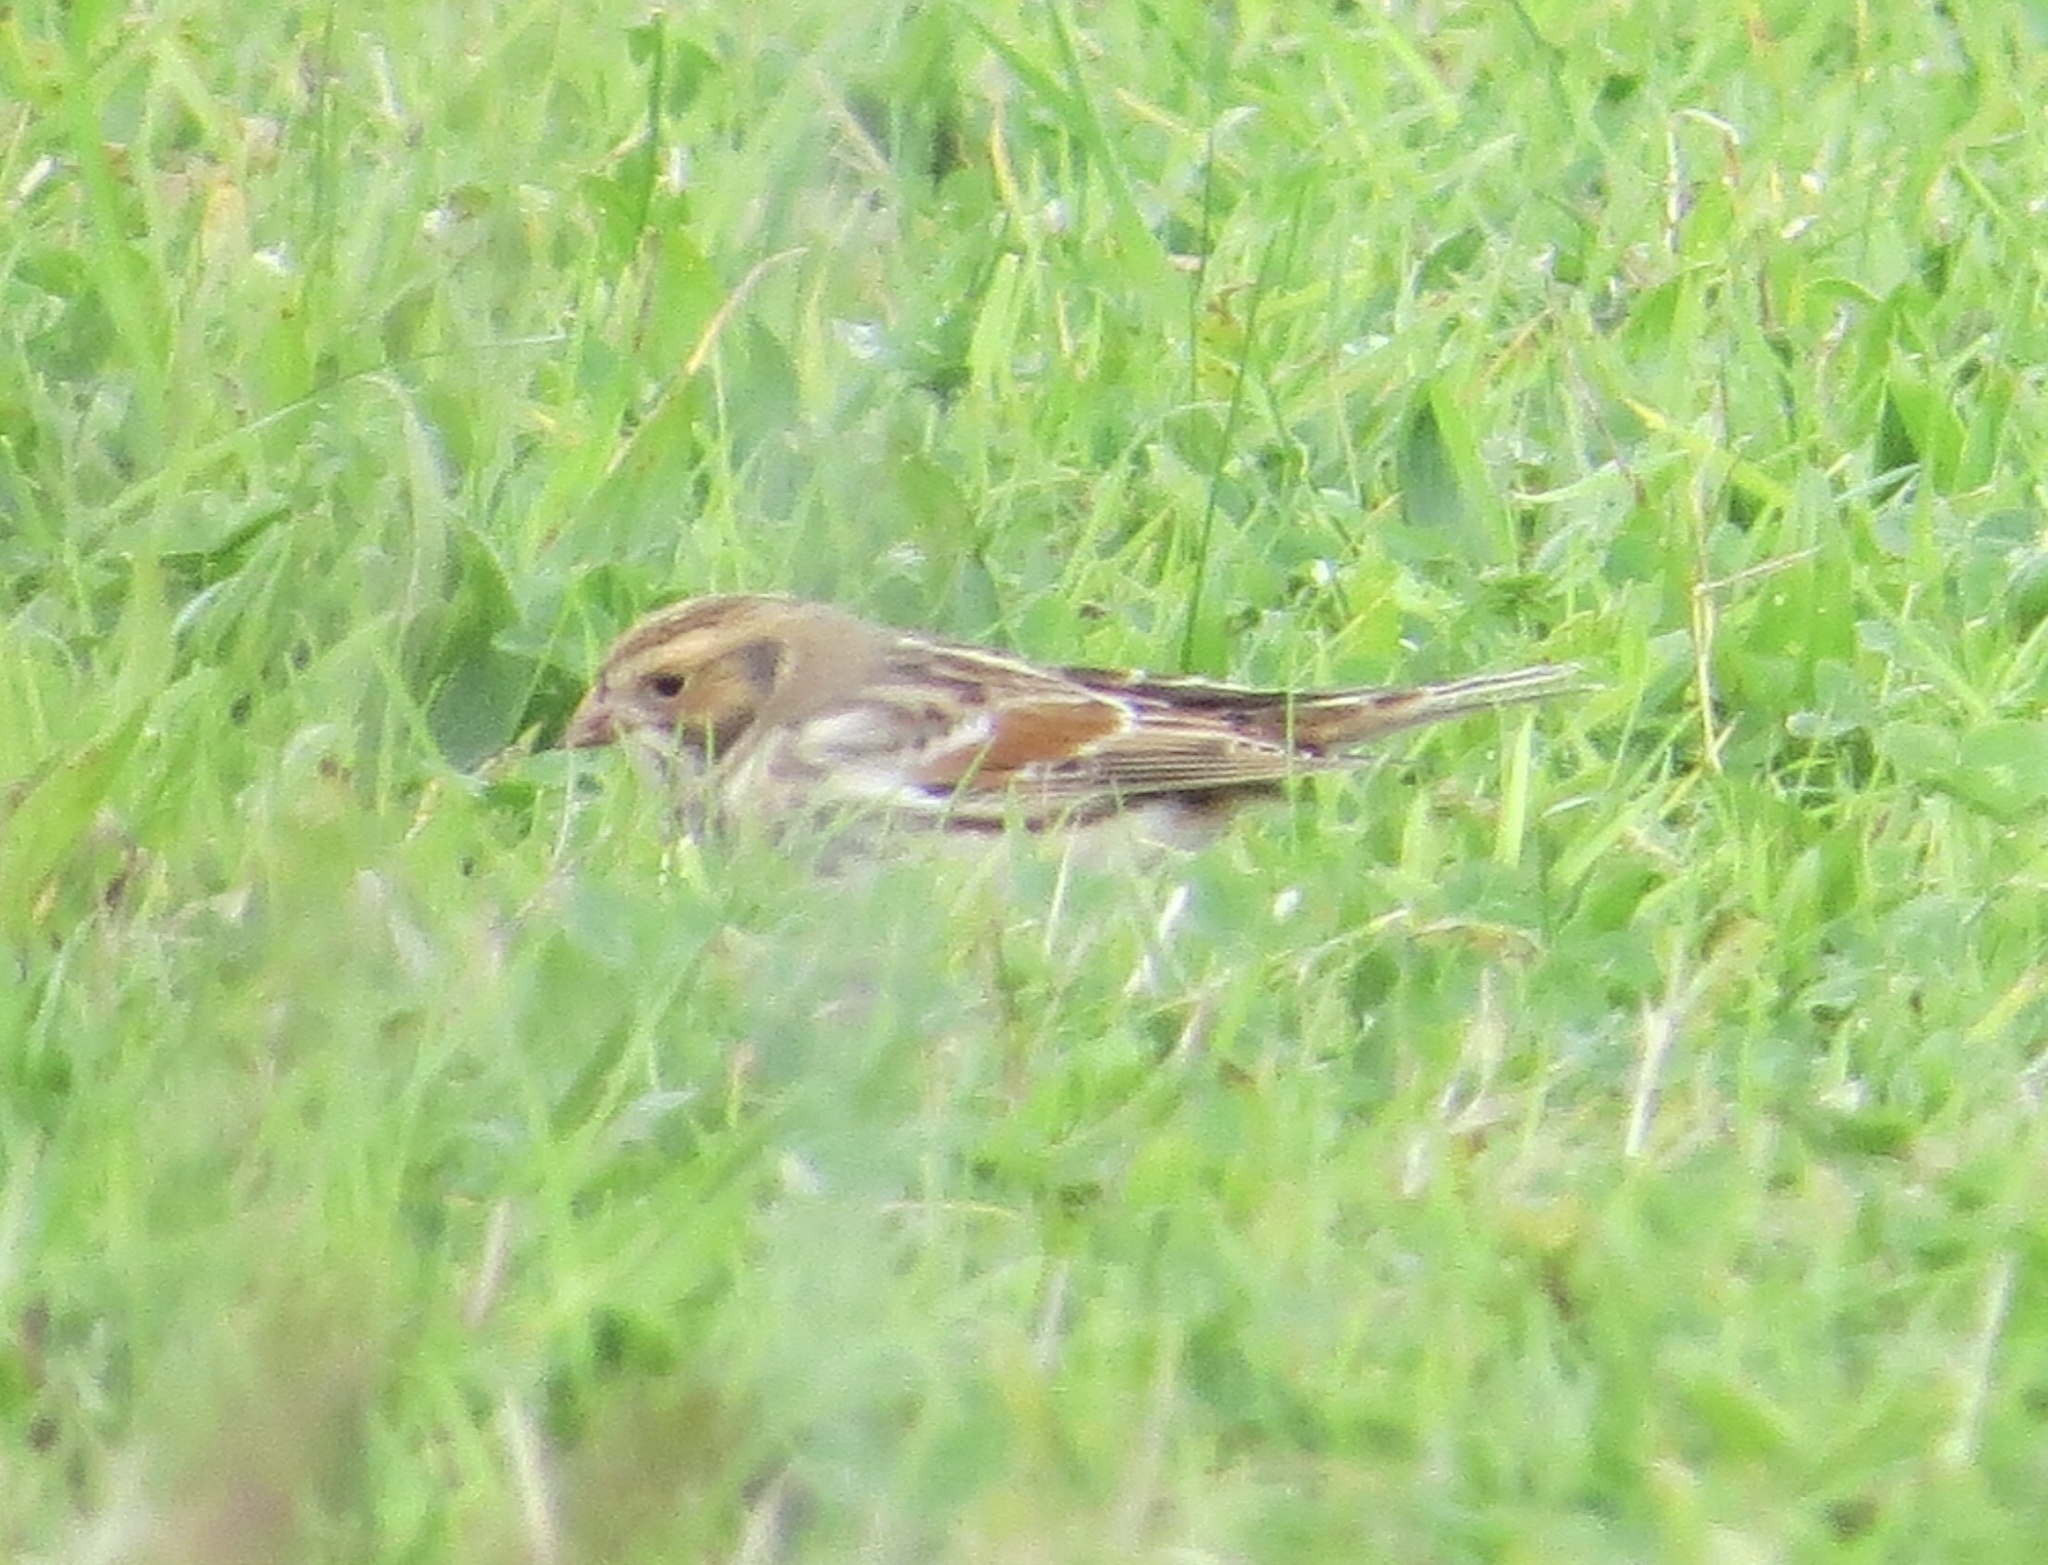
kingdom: Animalia
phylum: Chordata
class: Aves
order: Passeriformes
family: Calcariidae
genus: Calcarius
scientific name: Calcarius lapponicus
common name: Lapland longspur
